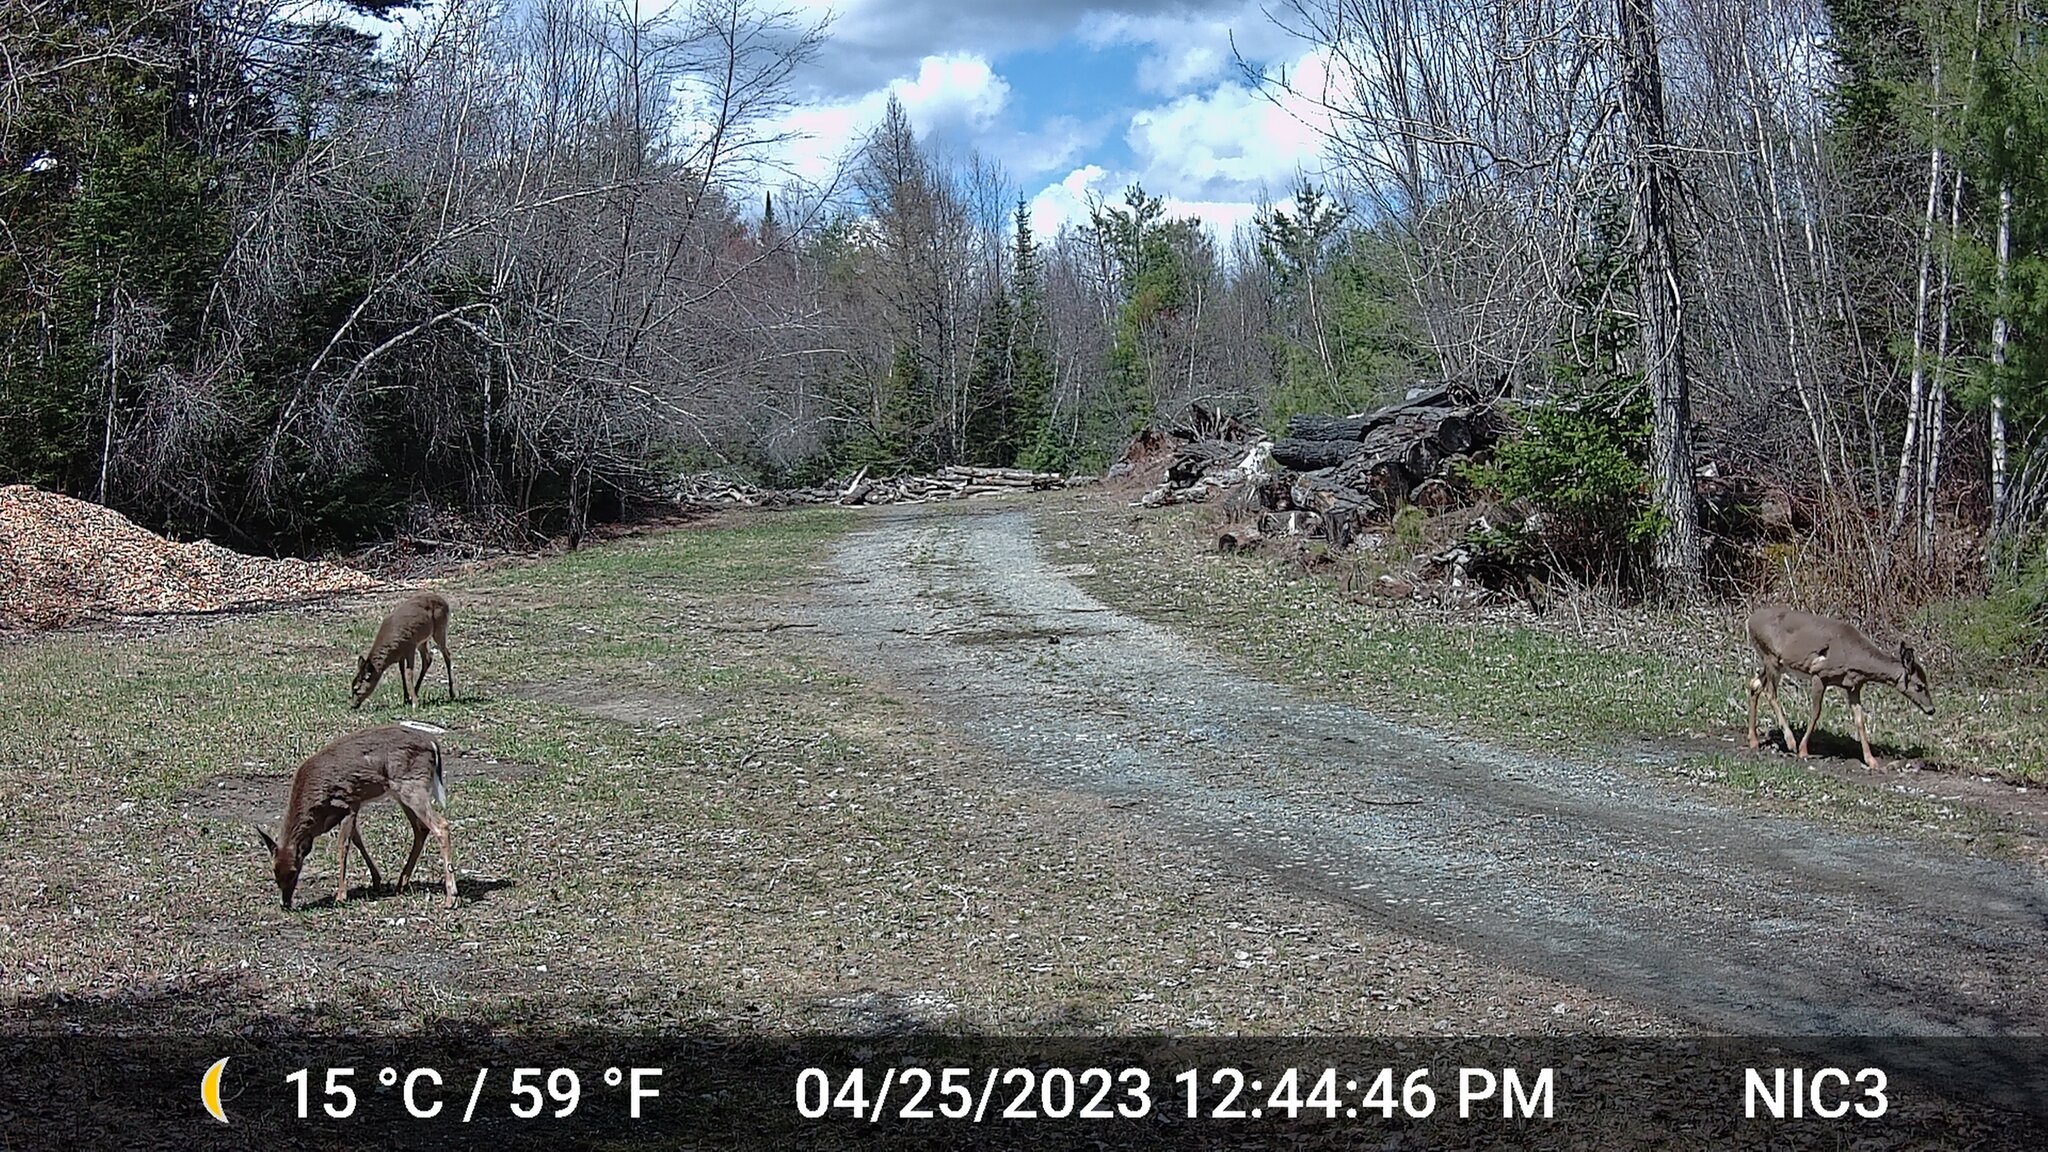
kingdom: Animalia
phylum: Chordata
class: Mammalia
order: Artiodactyla
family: Cervidae
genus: Odocoileus
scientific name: Odocoileus virginianus
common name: White-tailed deer
